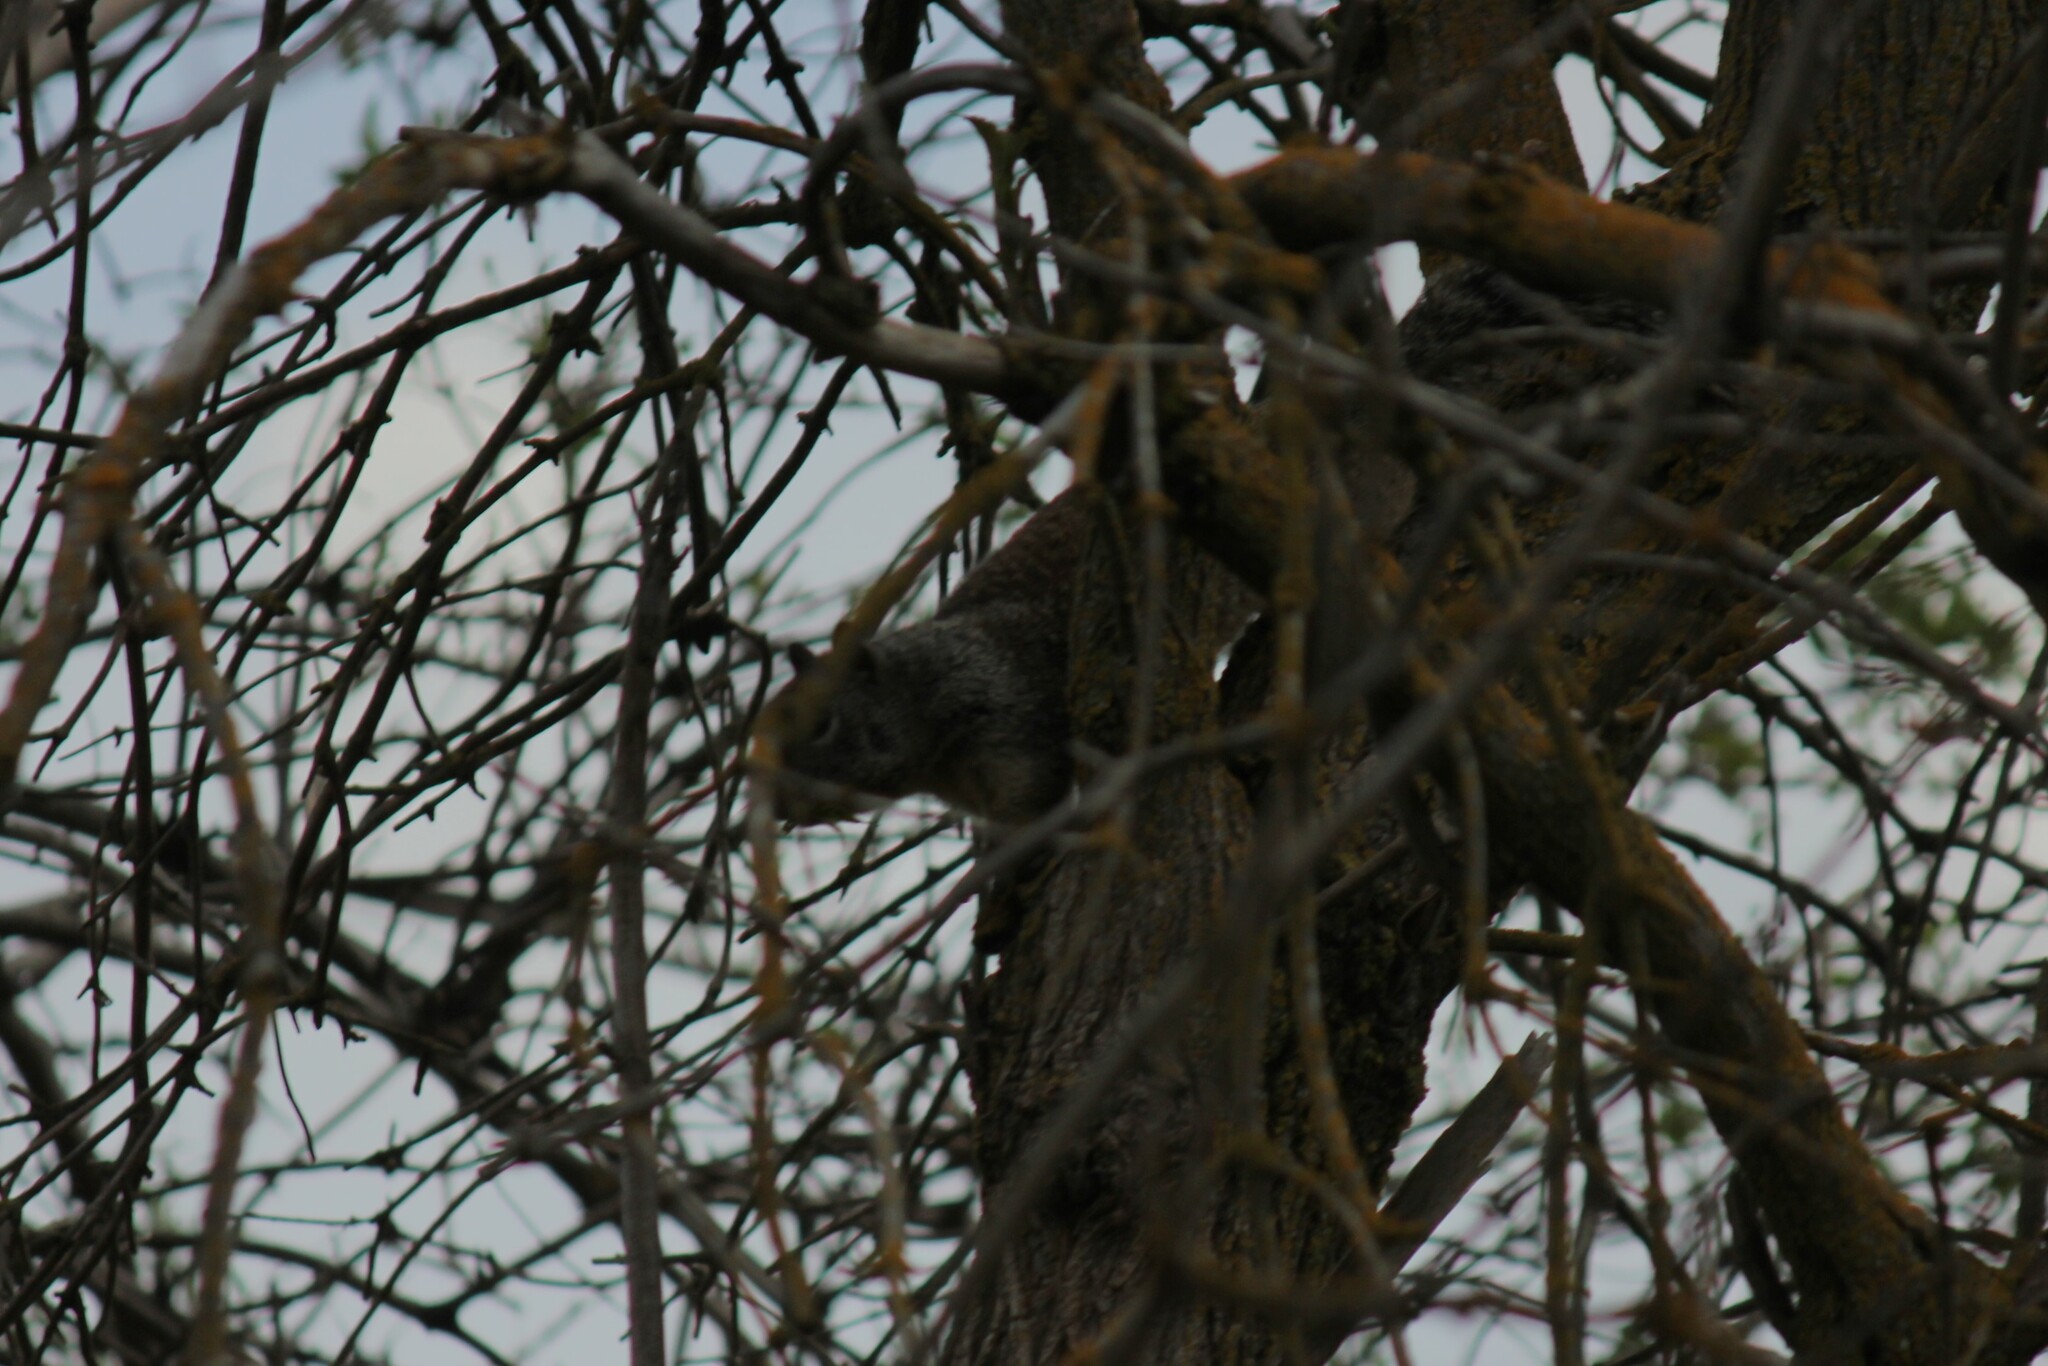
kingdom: Animalia
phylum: Chordata
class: Mammalia
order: Rodentia
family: Sciuridae
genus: Otospermophilus
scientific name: Otospermophilus beecheyi
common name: California ground squirrel
